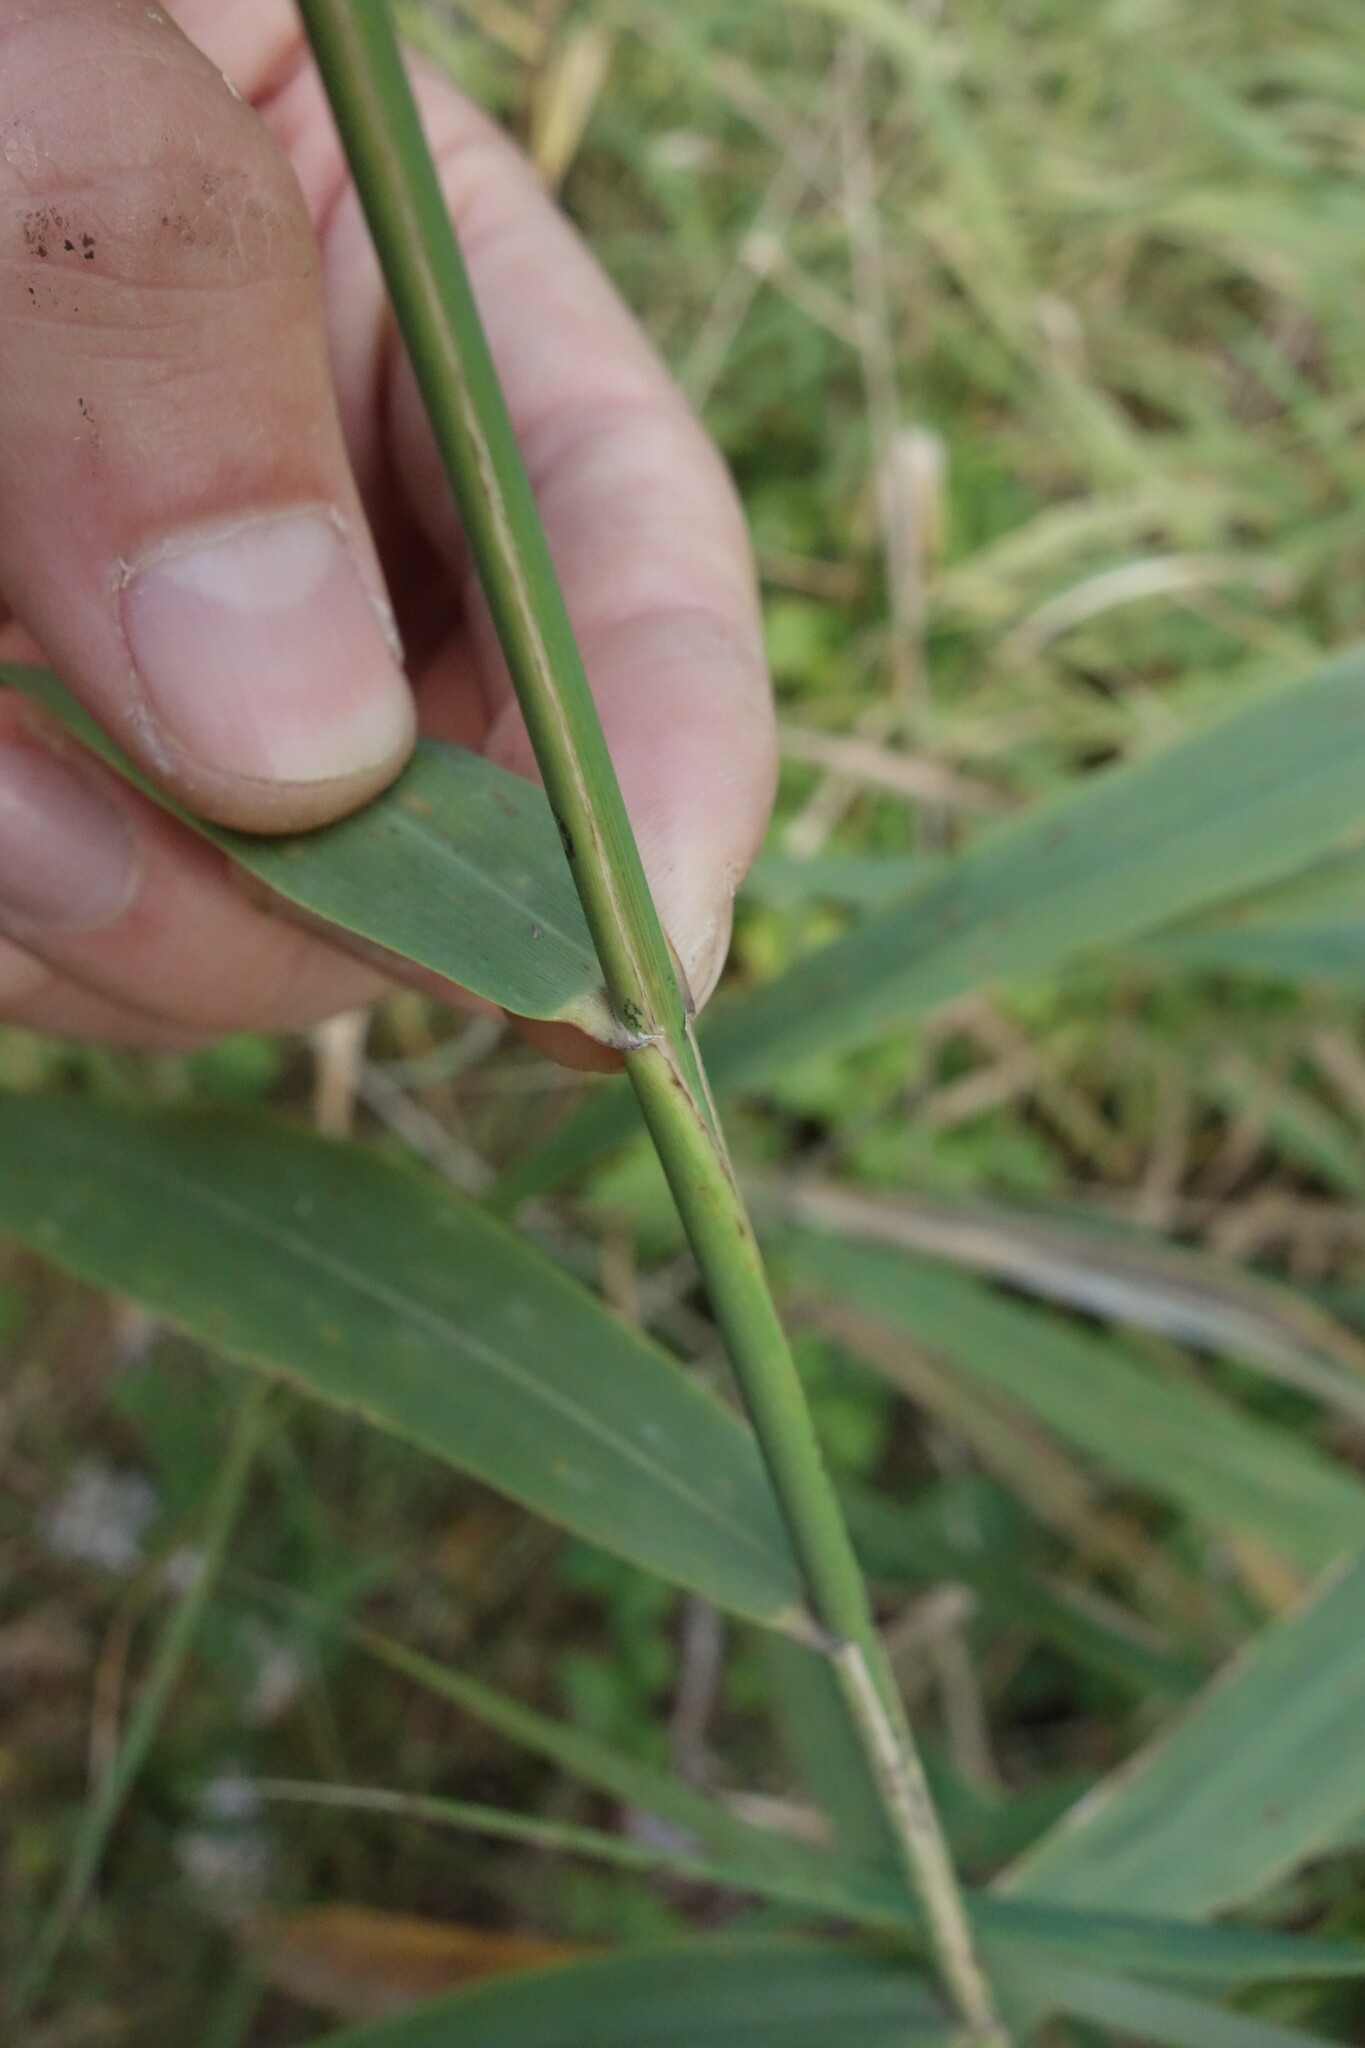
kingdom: Plantae
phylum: Tracheophyta
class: Liliopsida
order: Poales
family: Poaceae
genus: Phragmites
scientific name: Phragmites australis
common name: Common reed
